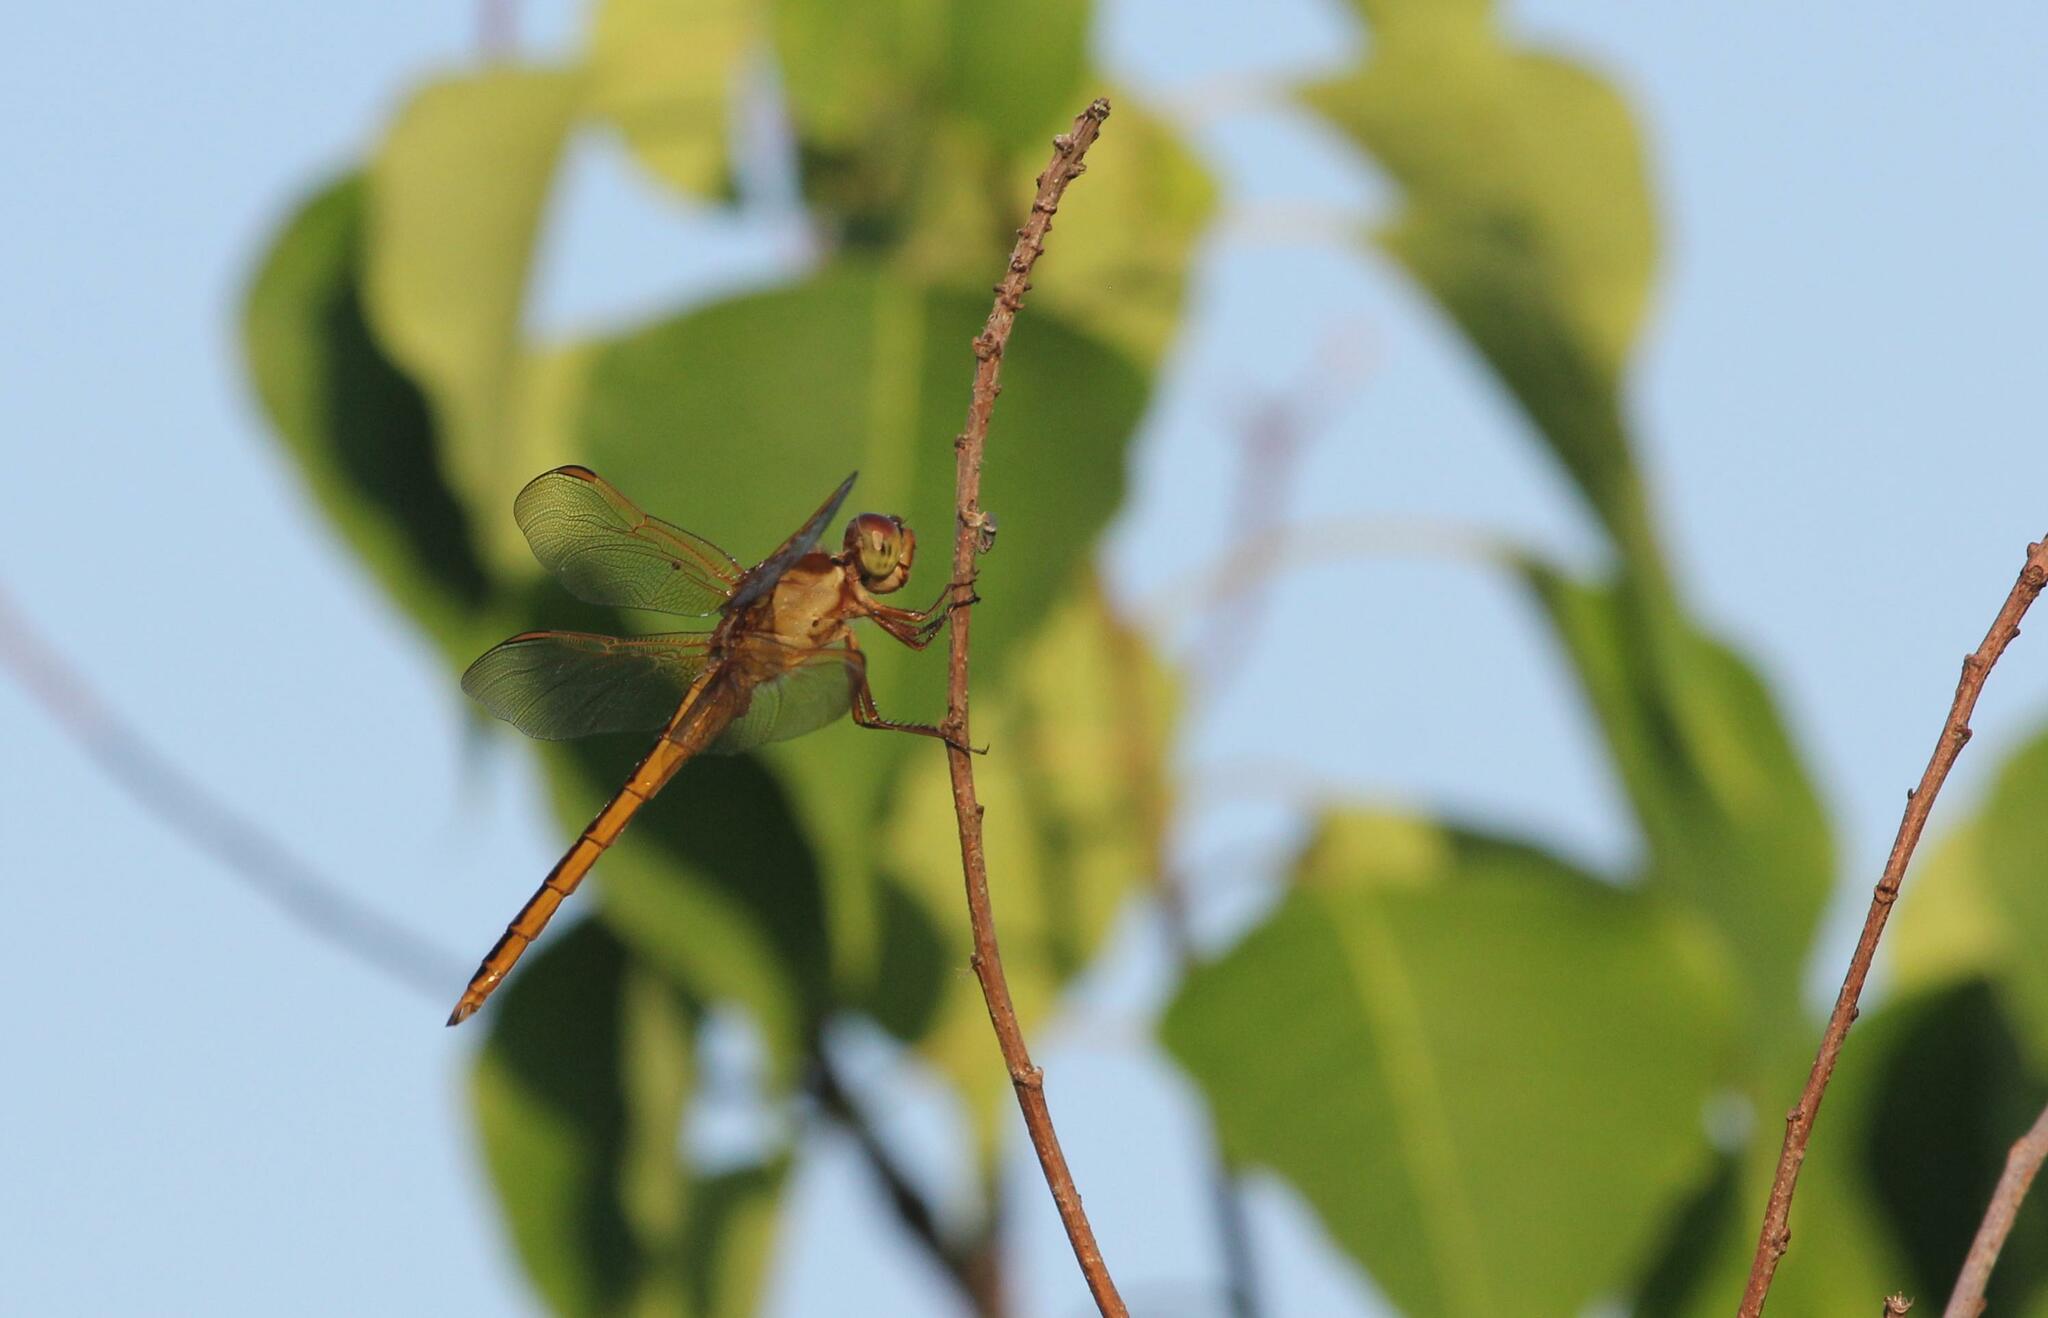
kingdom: Animalia
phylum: Arthropoda
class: Insecta
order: Odonata
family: Libellulidae
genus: Libellula
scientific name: Libellula needhami
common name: Needham's skimmer
